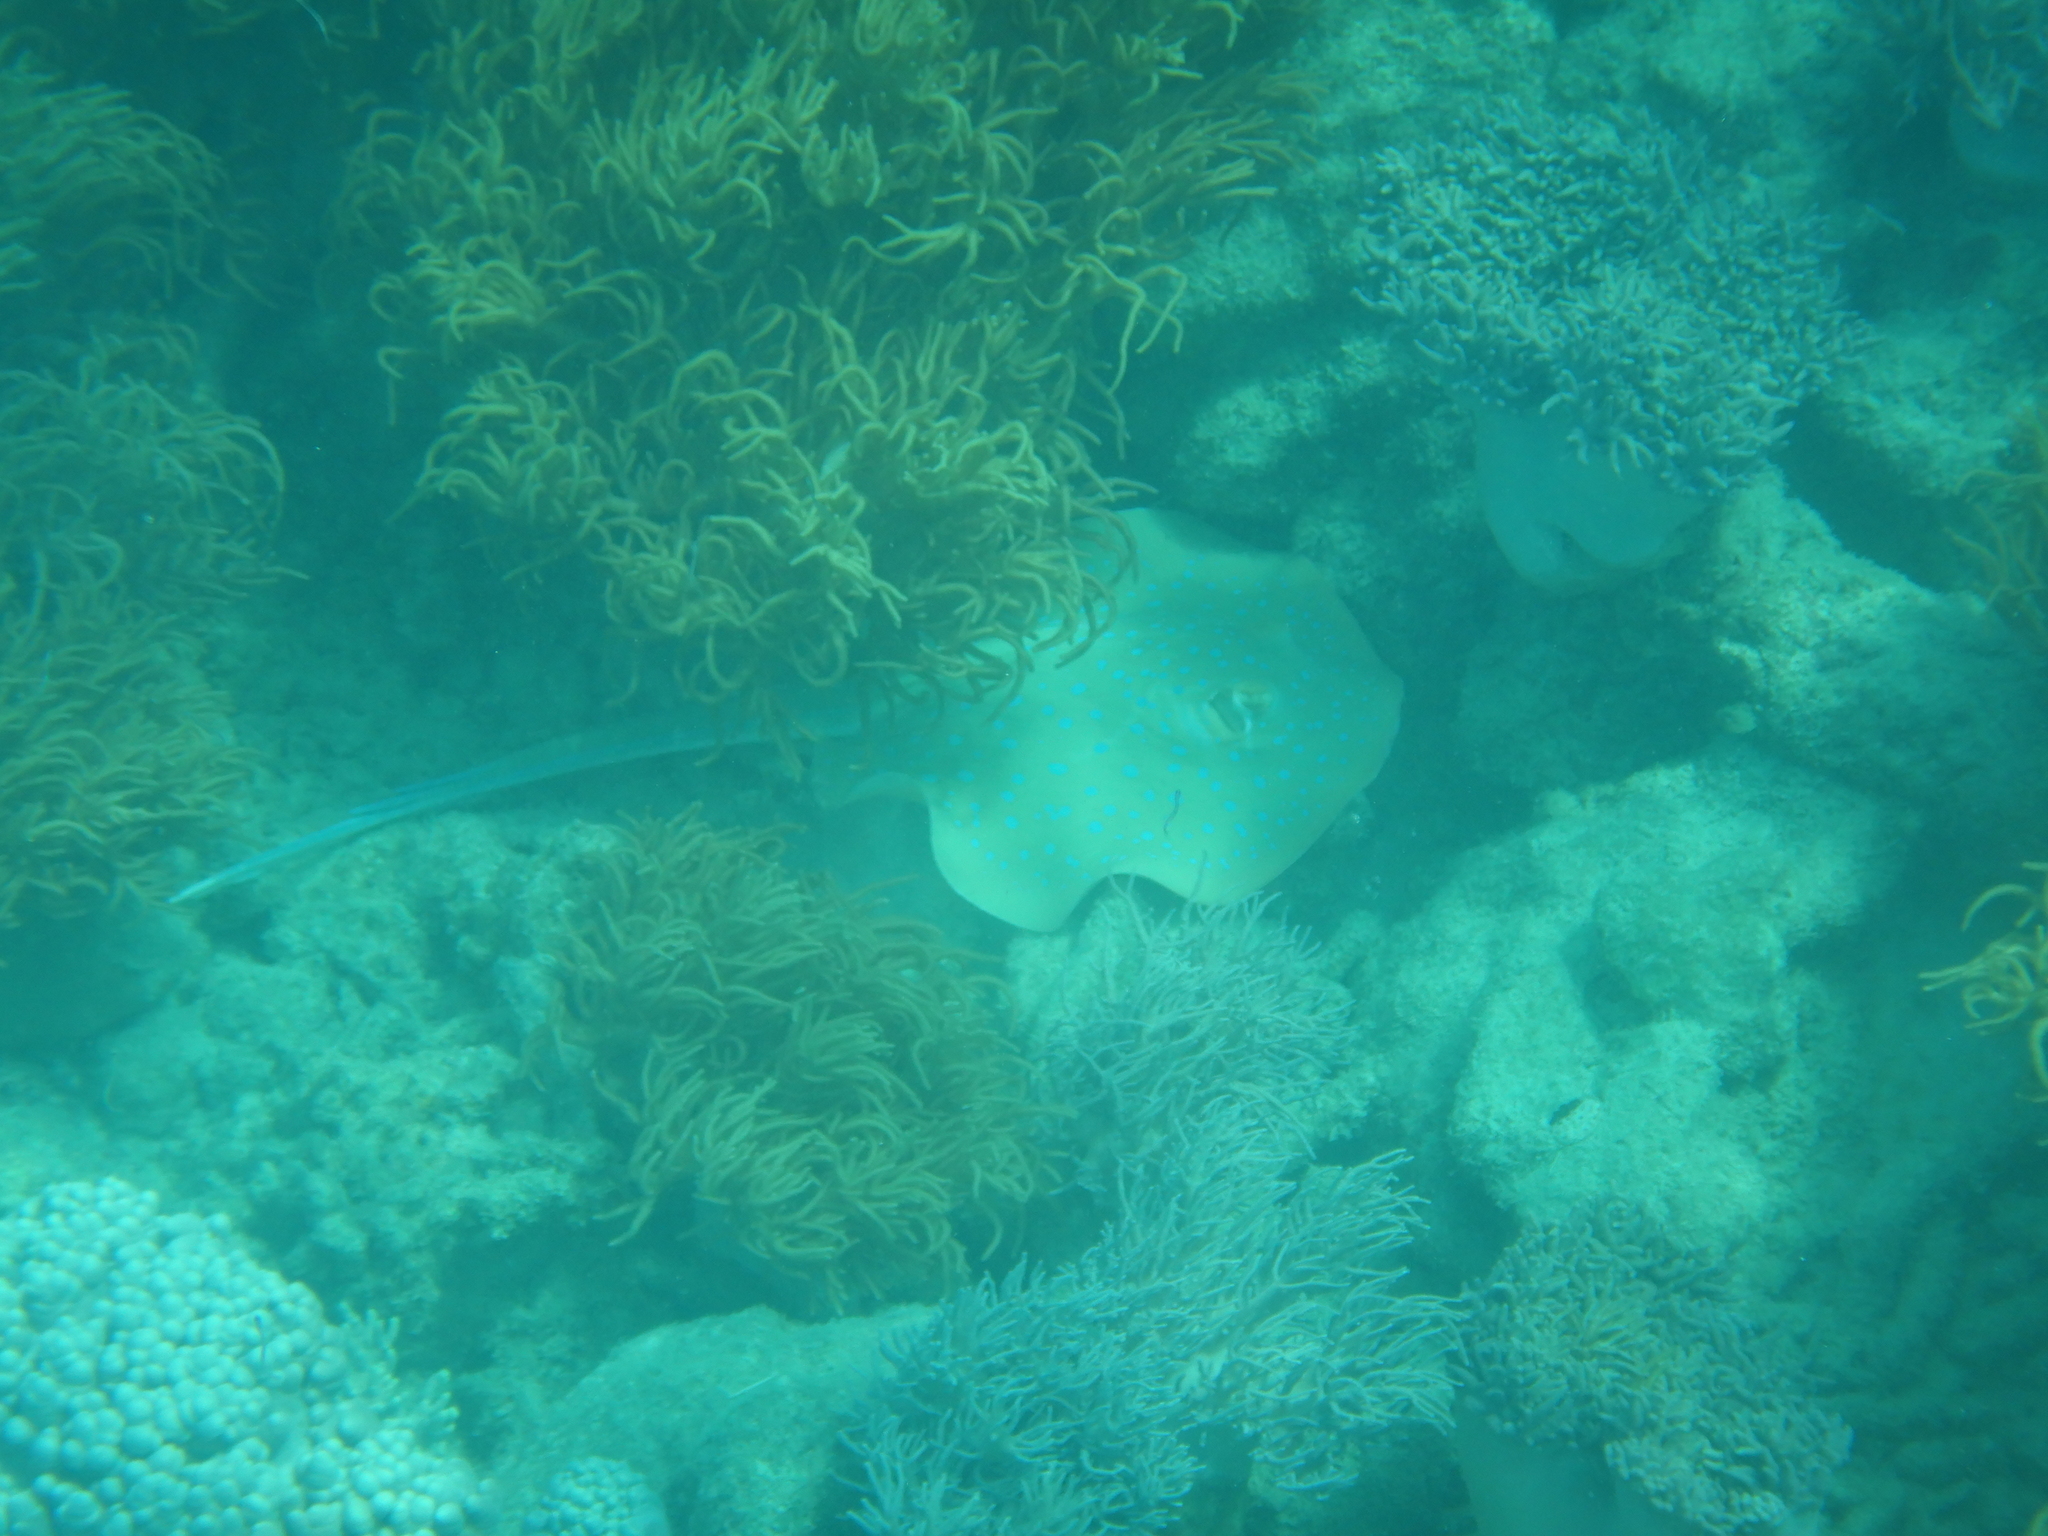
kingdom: Animalia
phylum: Chordata
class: Elasmobranchii
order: Myliobatiformes
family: Dasyatidae
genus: Taeniura
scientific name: Taeniura lymma
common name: Bluespotted ribbontail ray
